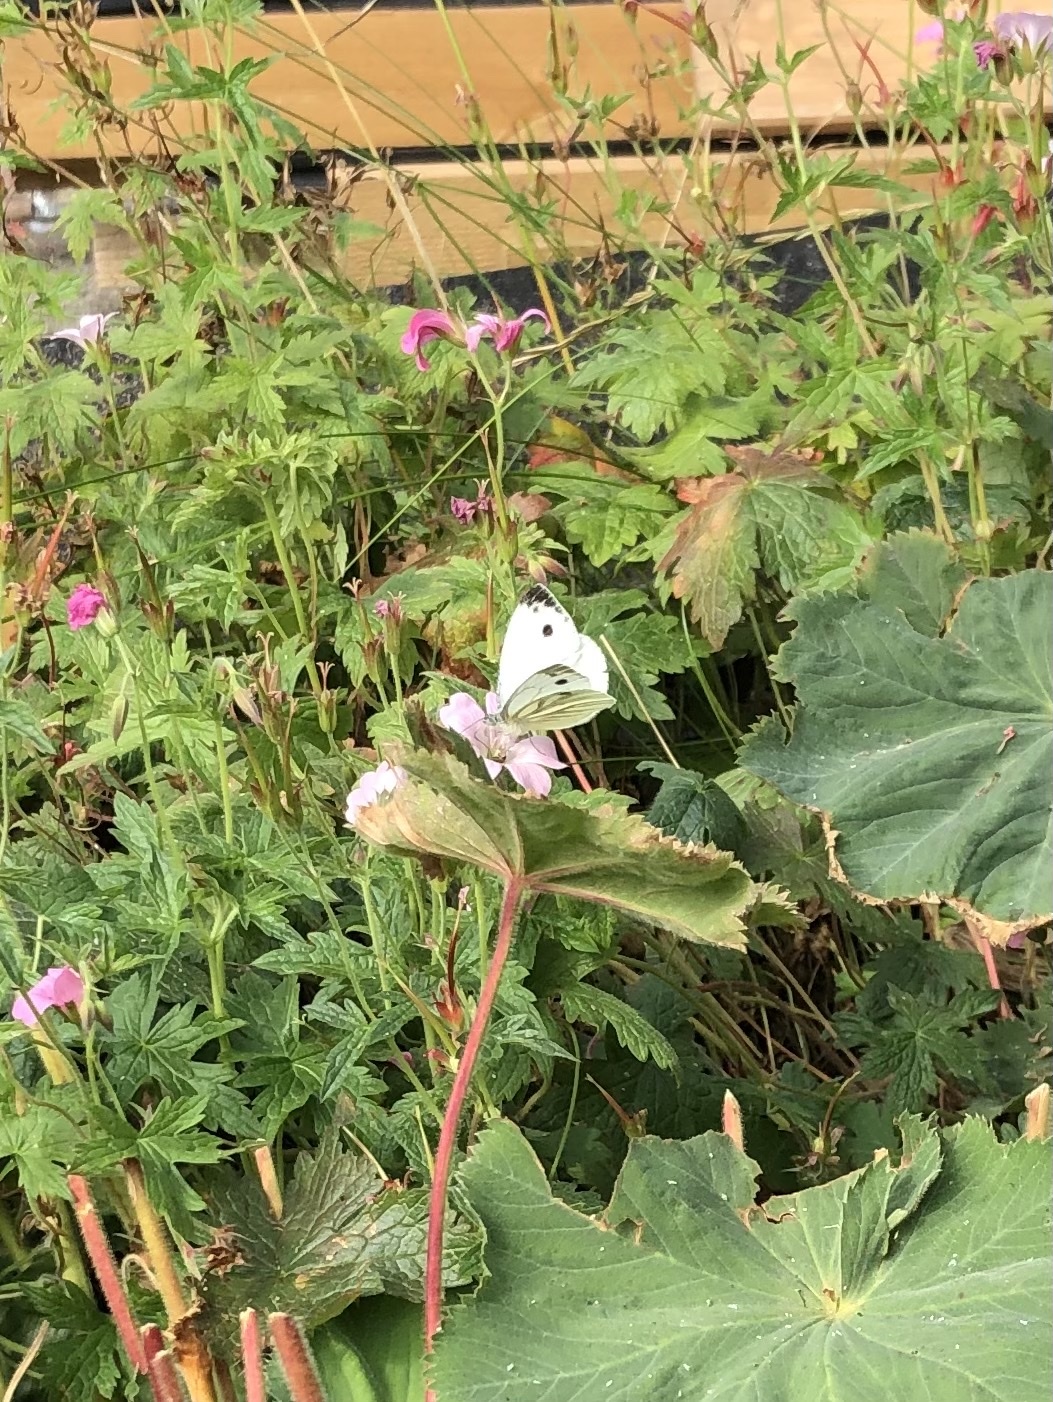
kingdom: Animalia
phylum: Arthropoda
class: Insecta
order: Lepidoptera
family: Pieridae
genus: Pieris
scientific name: Pieris napi
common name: Green-veined white
